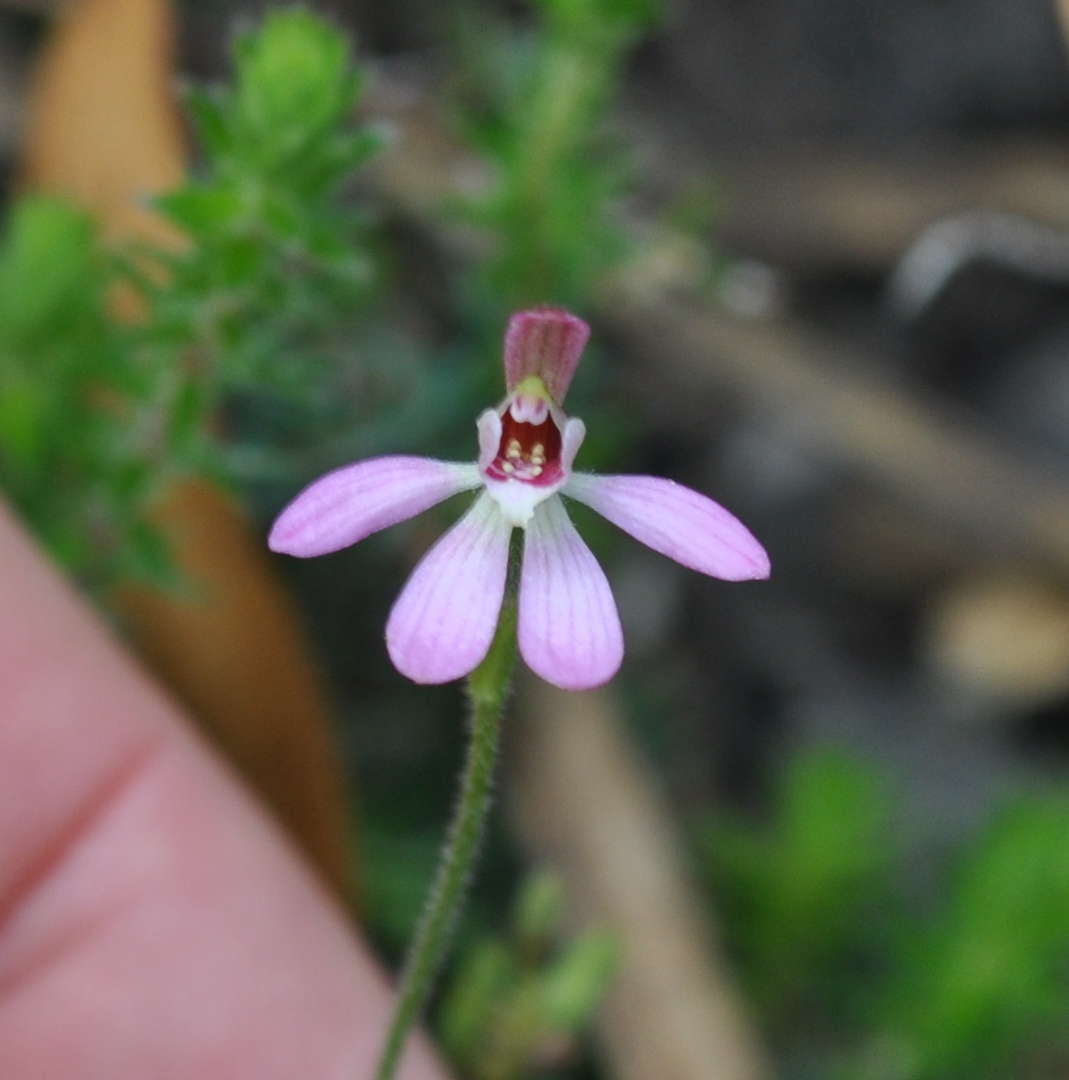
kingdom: Plantae
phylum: Tracheophyta
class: Liliopsida
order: Asparagales
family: Orchidaceae
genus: Caladenia
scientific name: Caladenia pusilla
